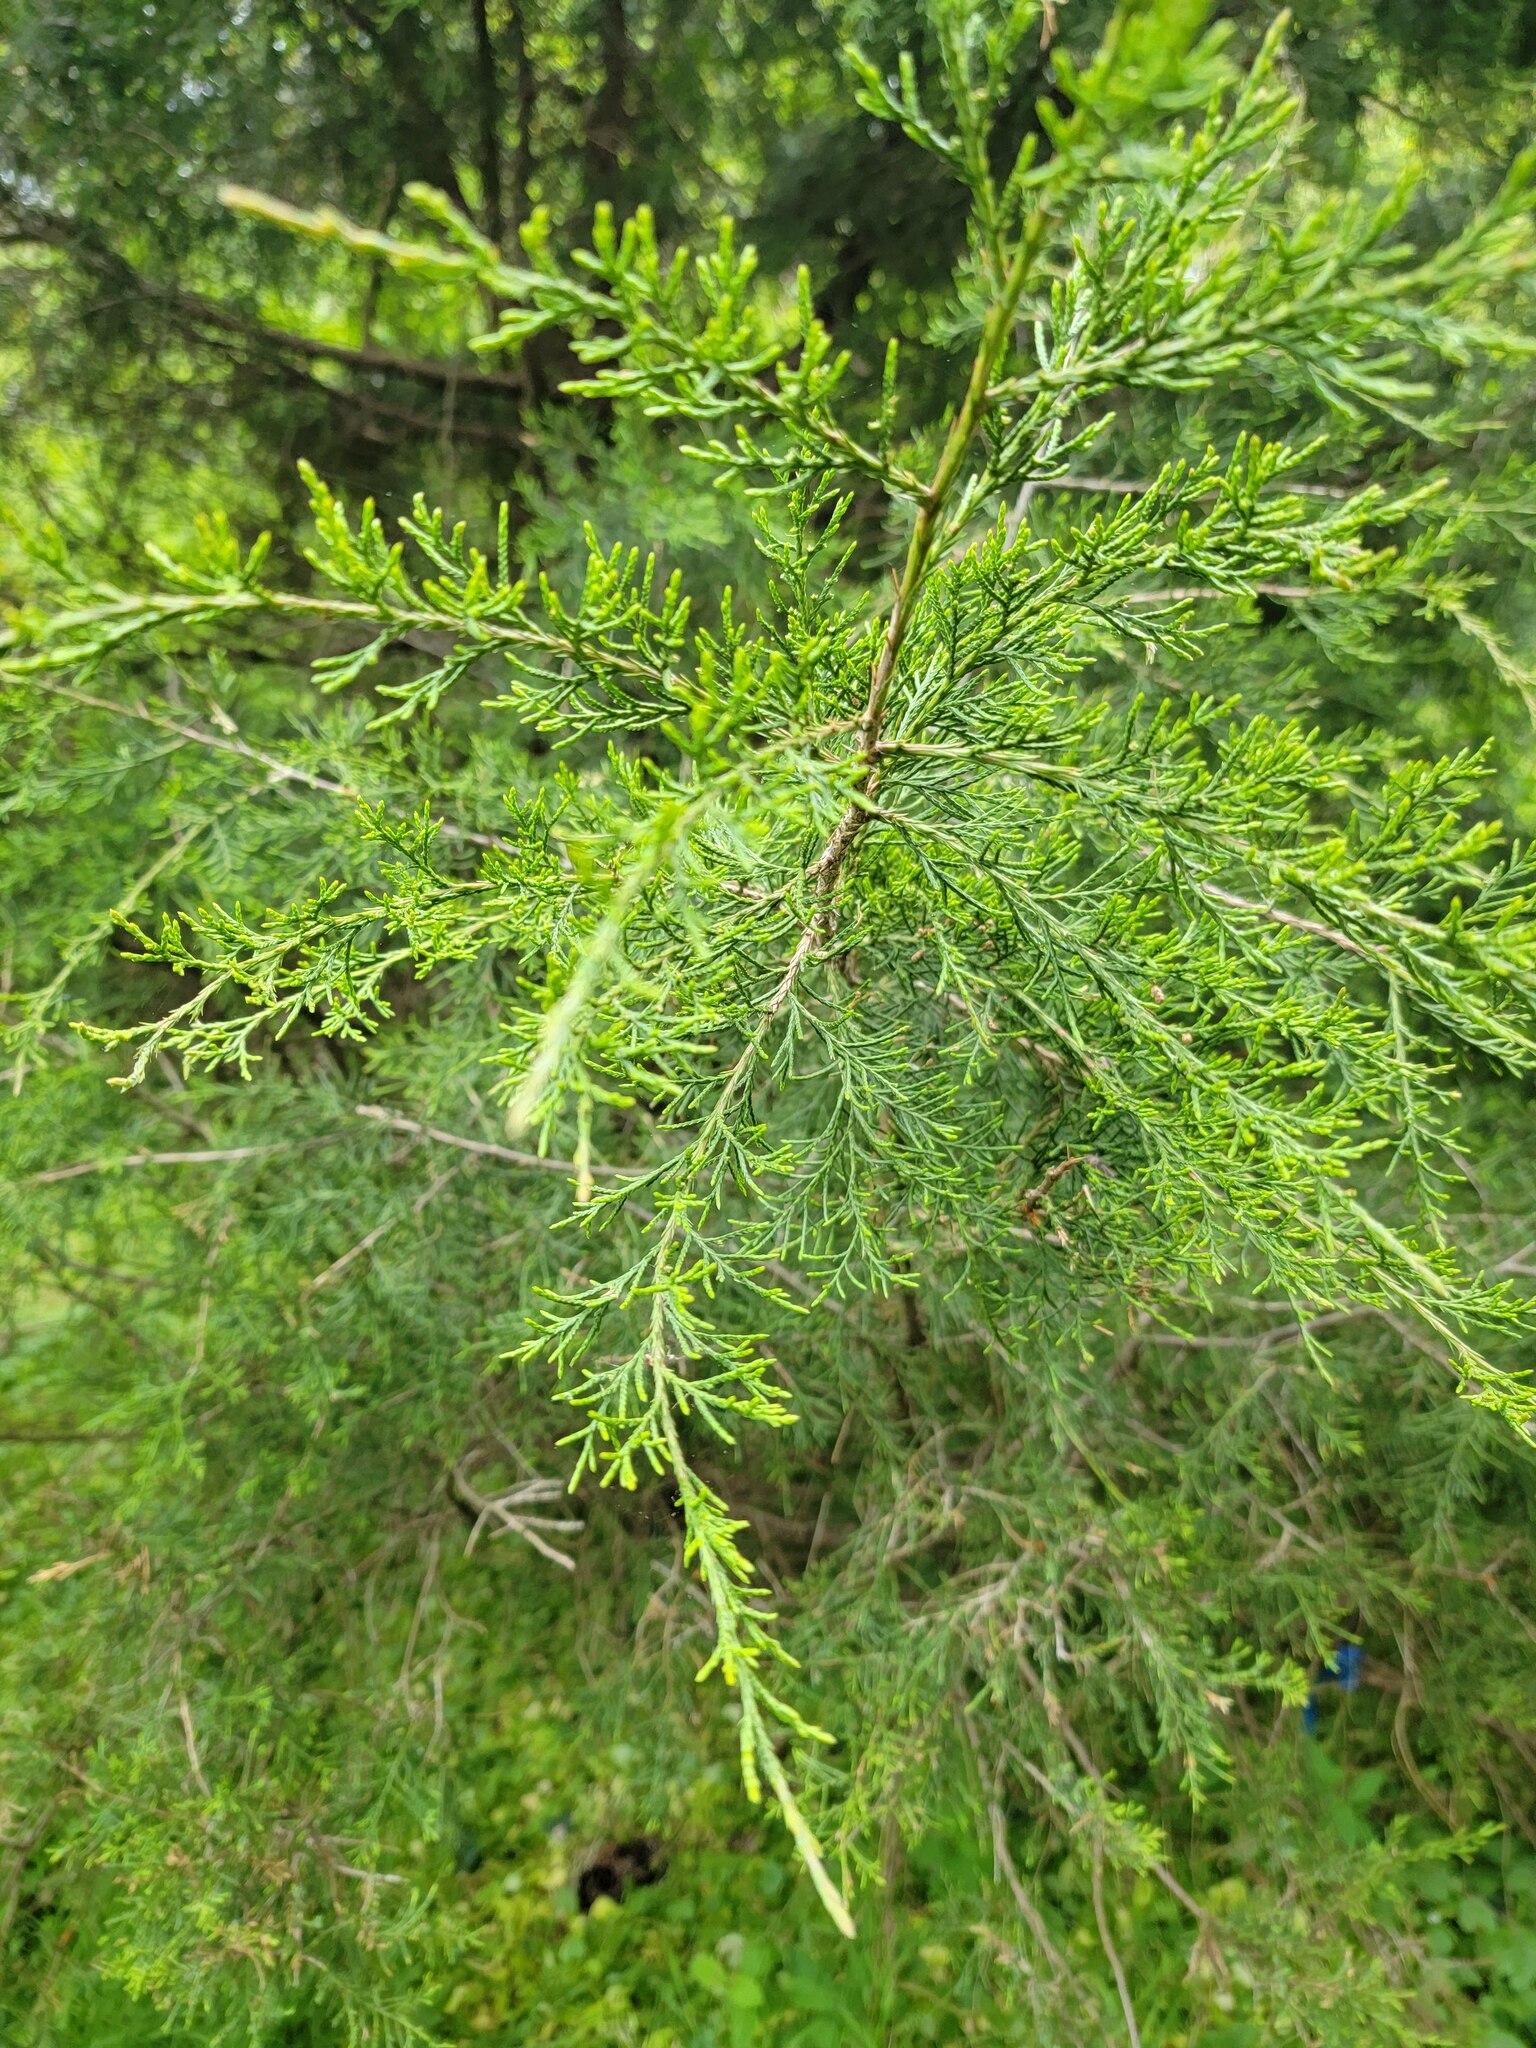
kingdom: Plantae
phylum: Tracheophyta
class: Pinopsida
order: Pinales
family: Cupressaceae
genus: Juniperus
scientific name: Juniperus virginiana
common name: Red juniper
